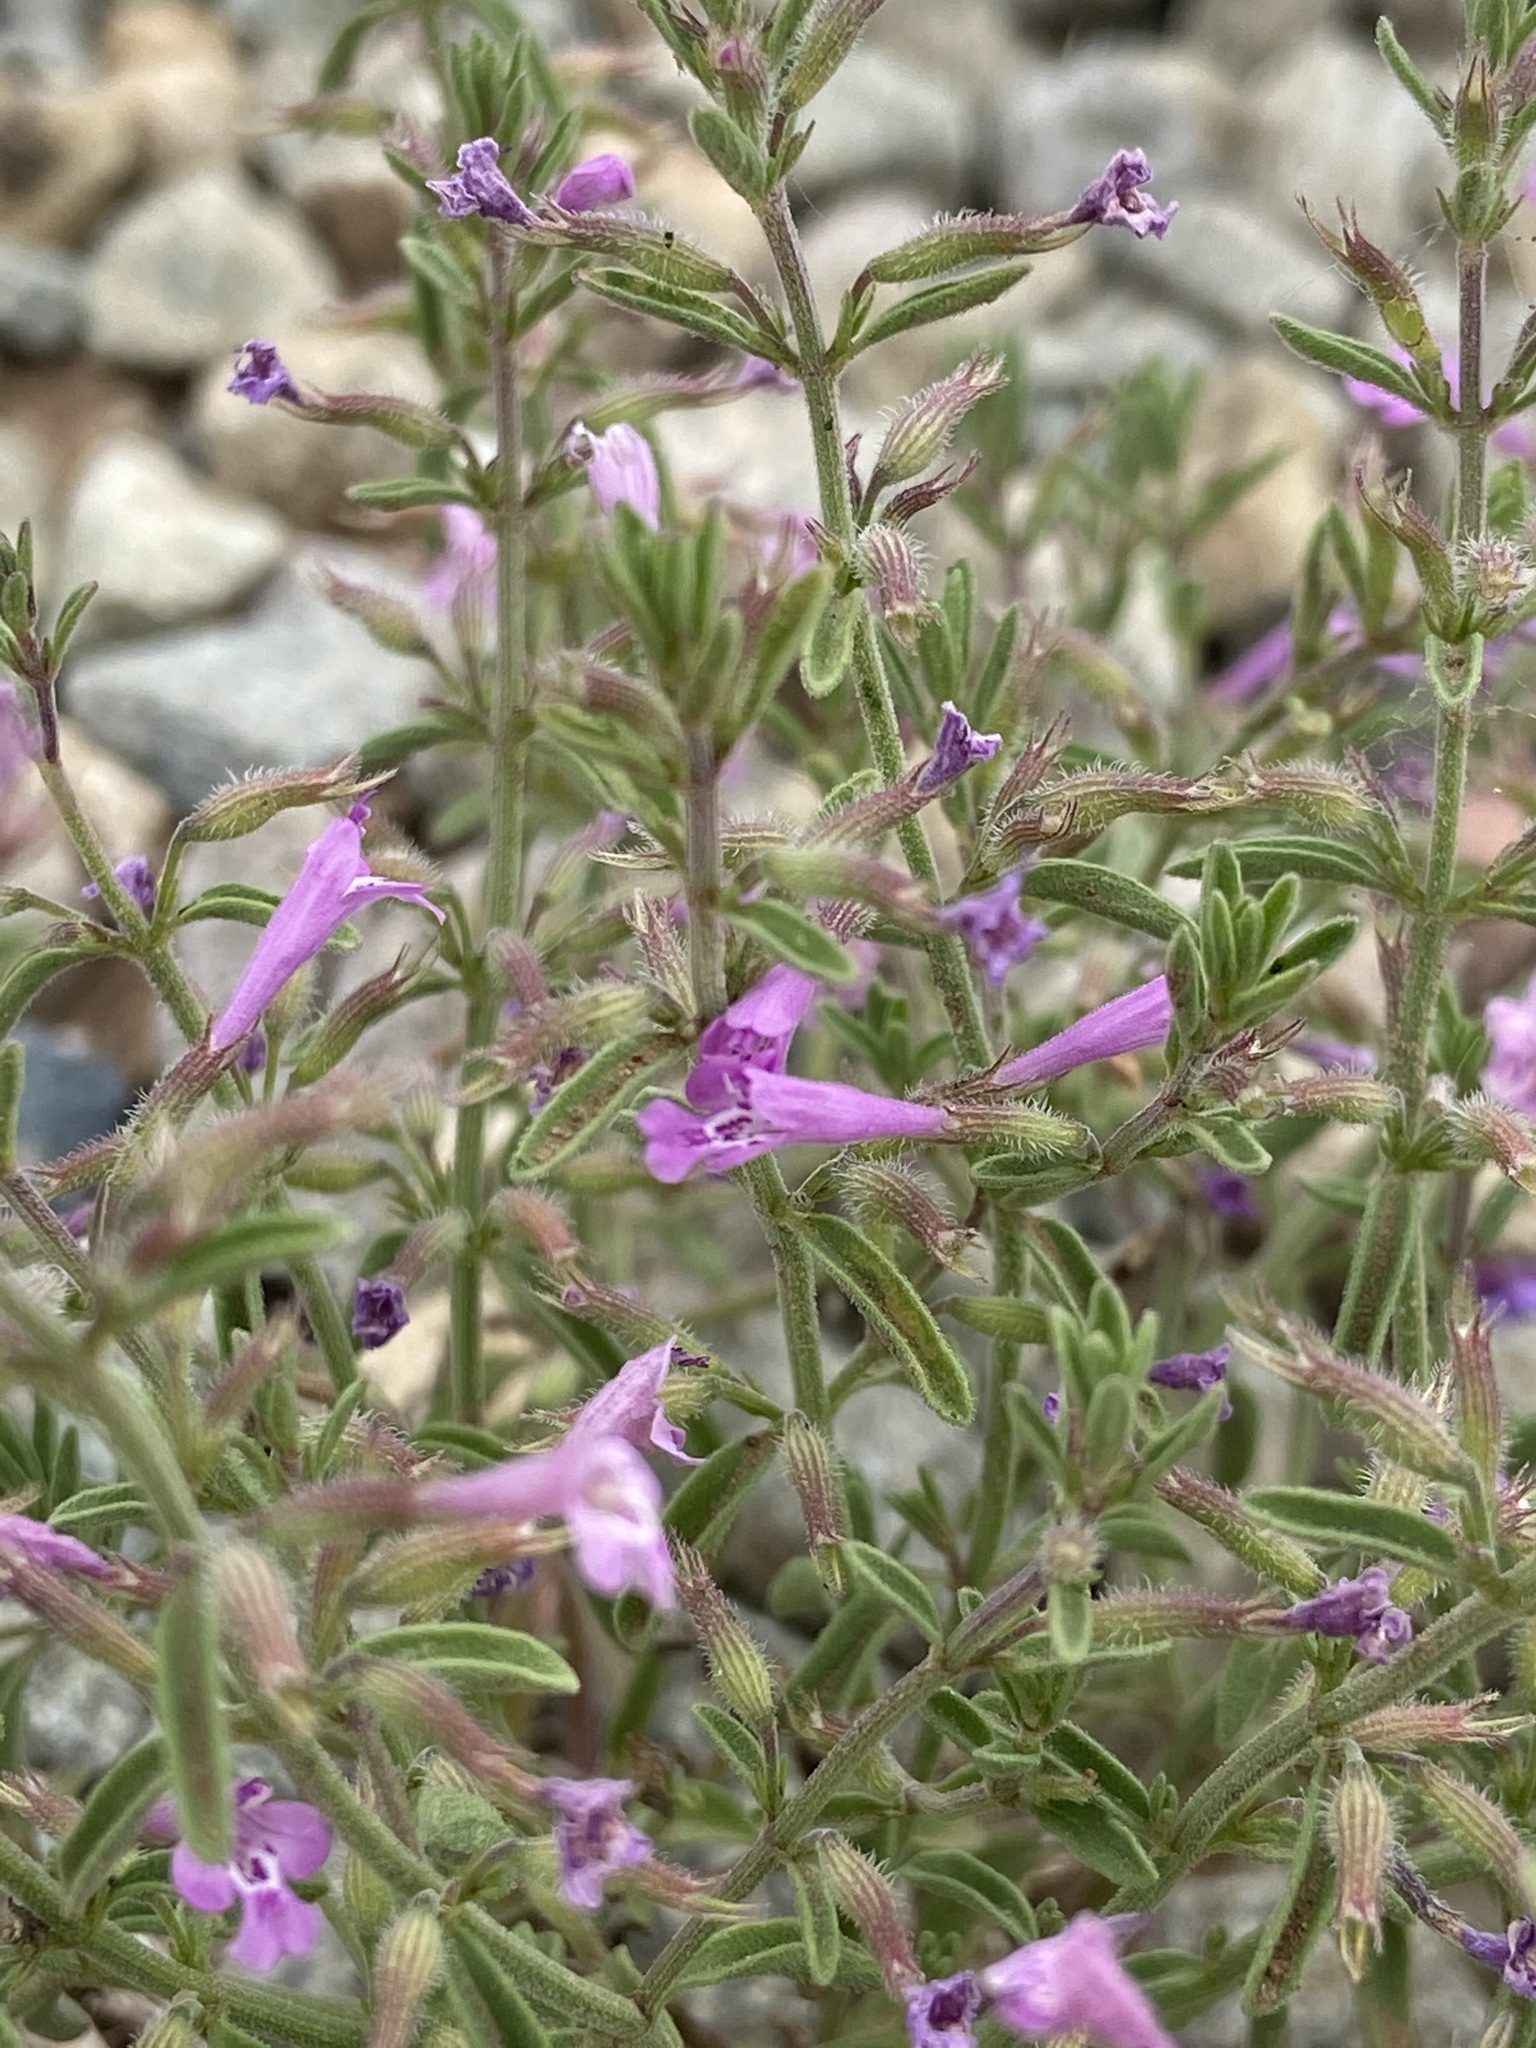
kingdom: Plantae
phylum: Tracheophyta
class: Magnoliopsida
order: Lamiales
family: Lamiaceae
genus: Hedeoma
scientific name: Hedeoma drummondii
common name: New mexico pennyroyal
